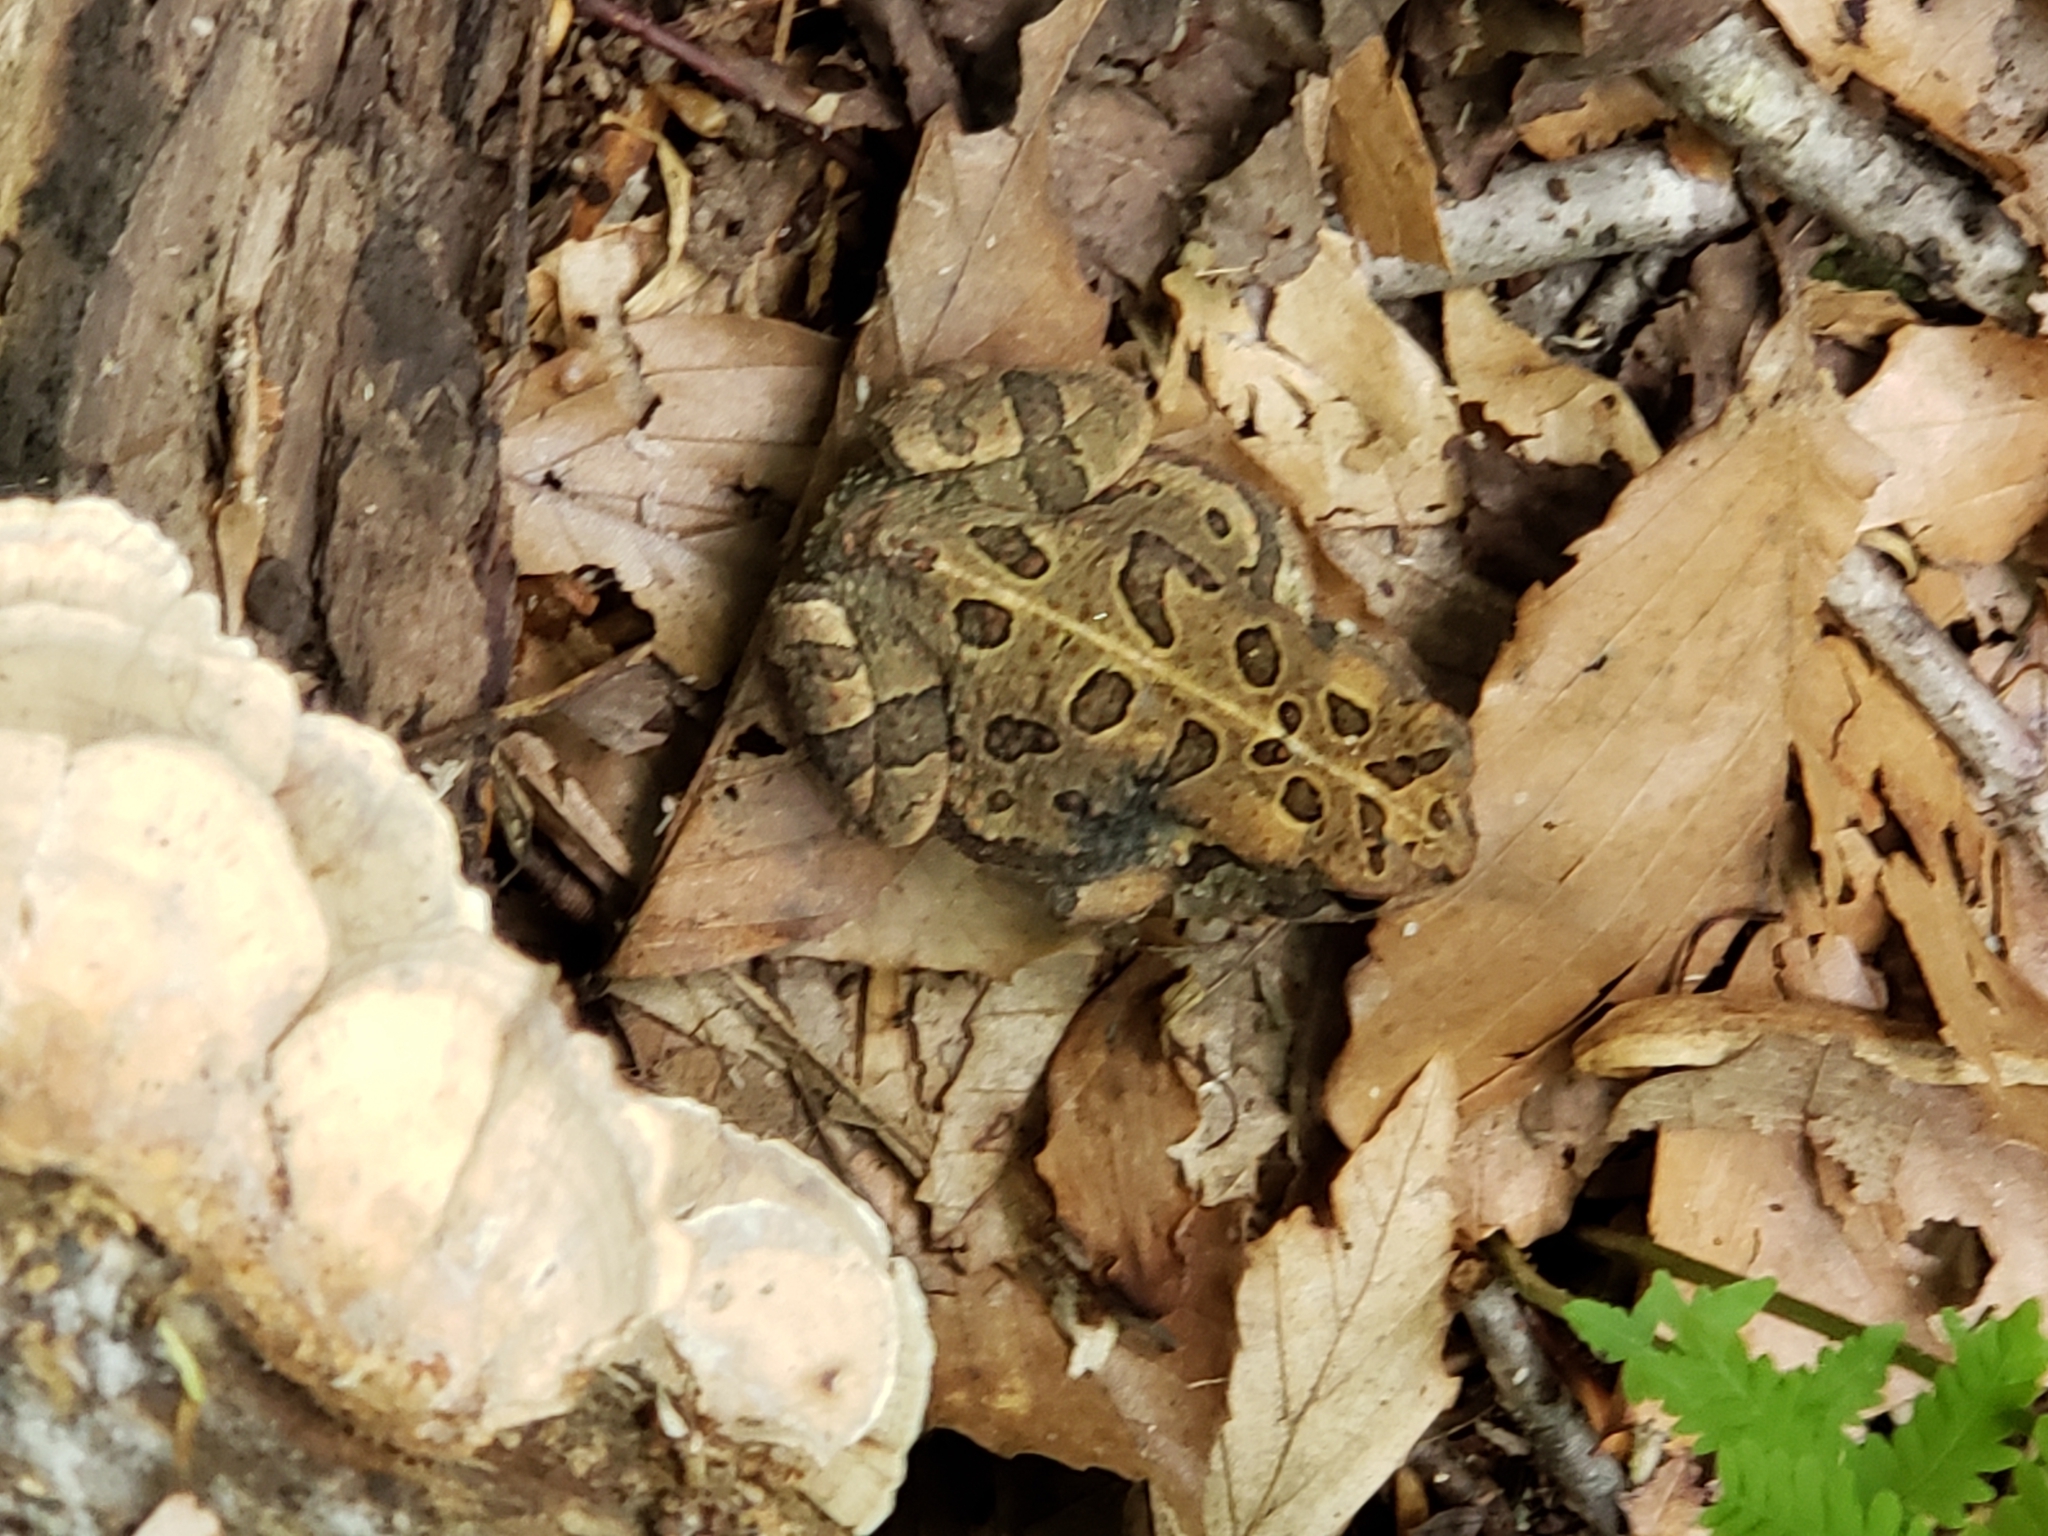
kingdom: Animalia
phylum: Chordata
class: Amphibia
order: Anura
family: Bufonidae
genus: Anaxyrus
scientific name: Anaxyrus fowleri
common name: Fowler's toad
